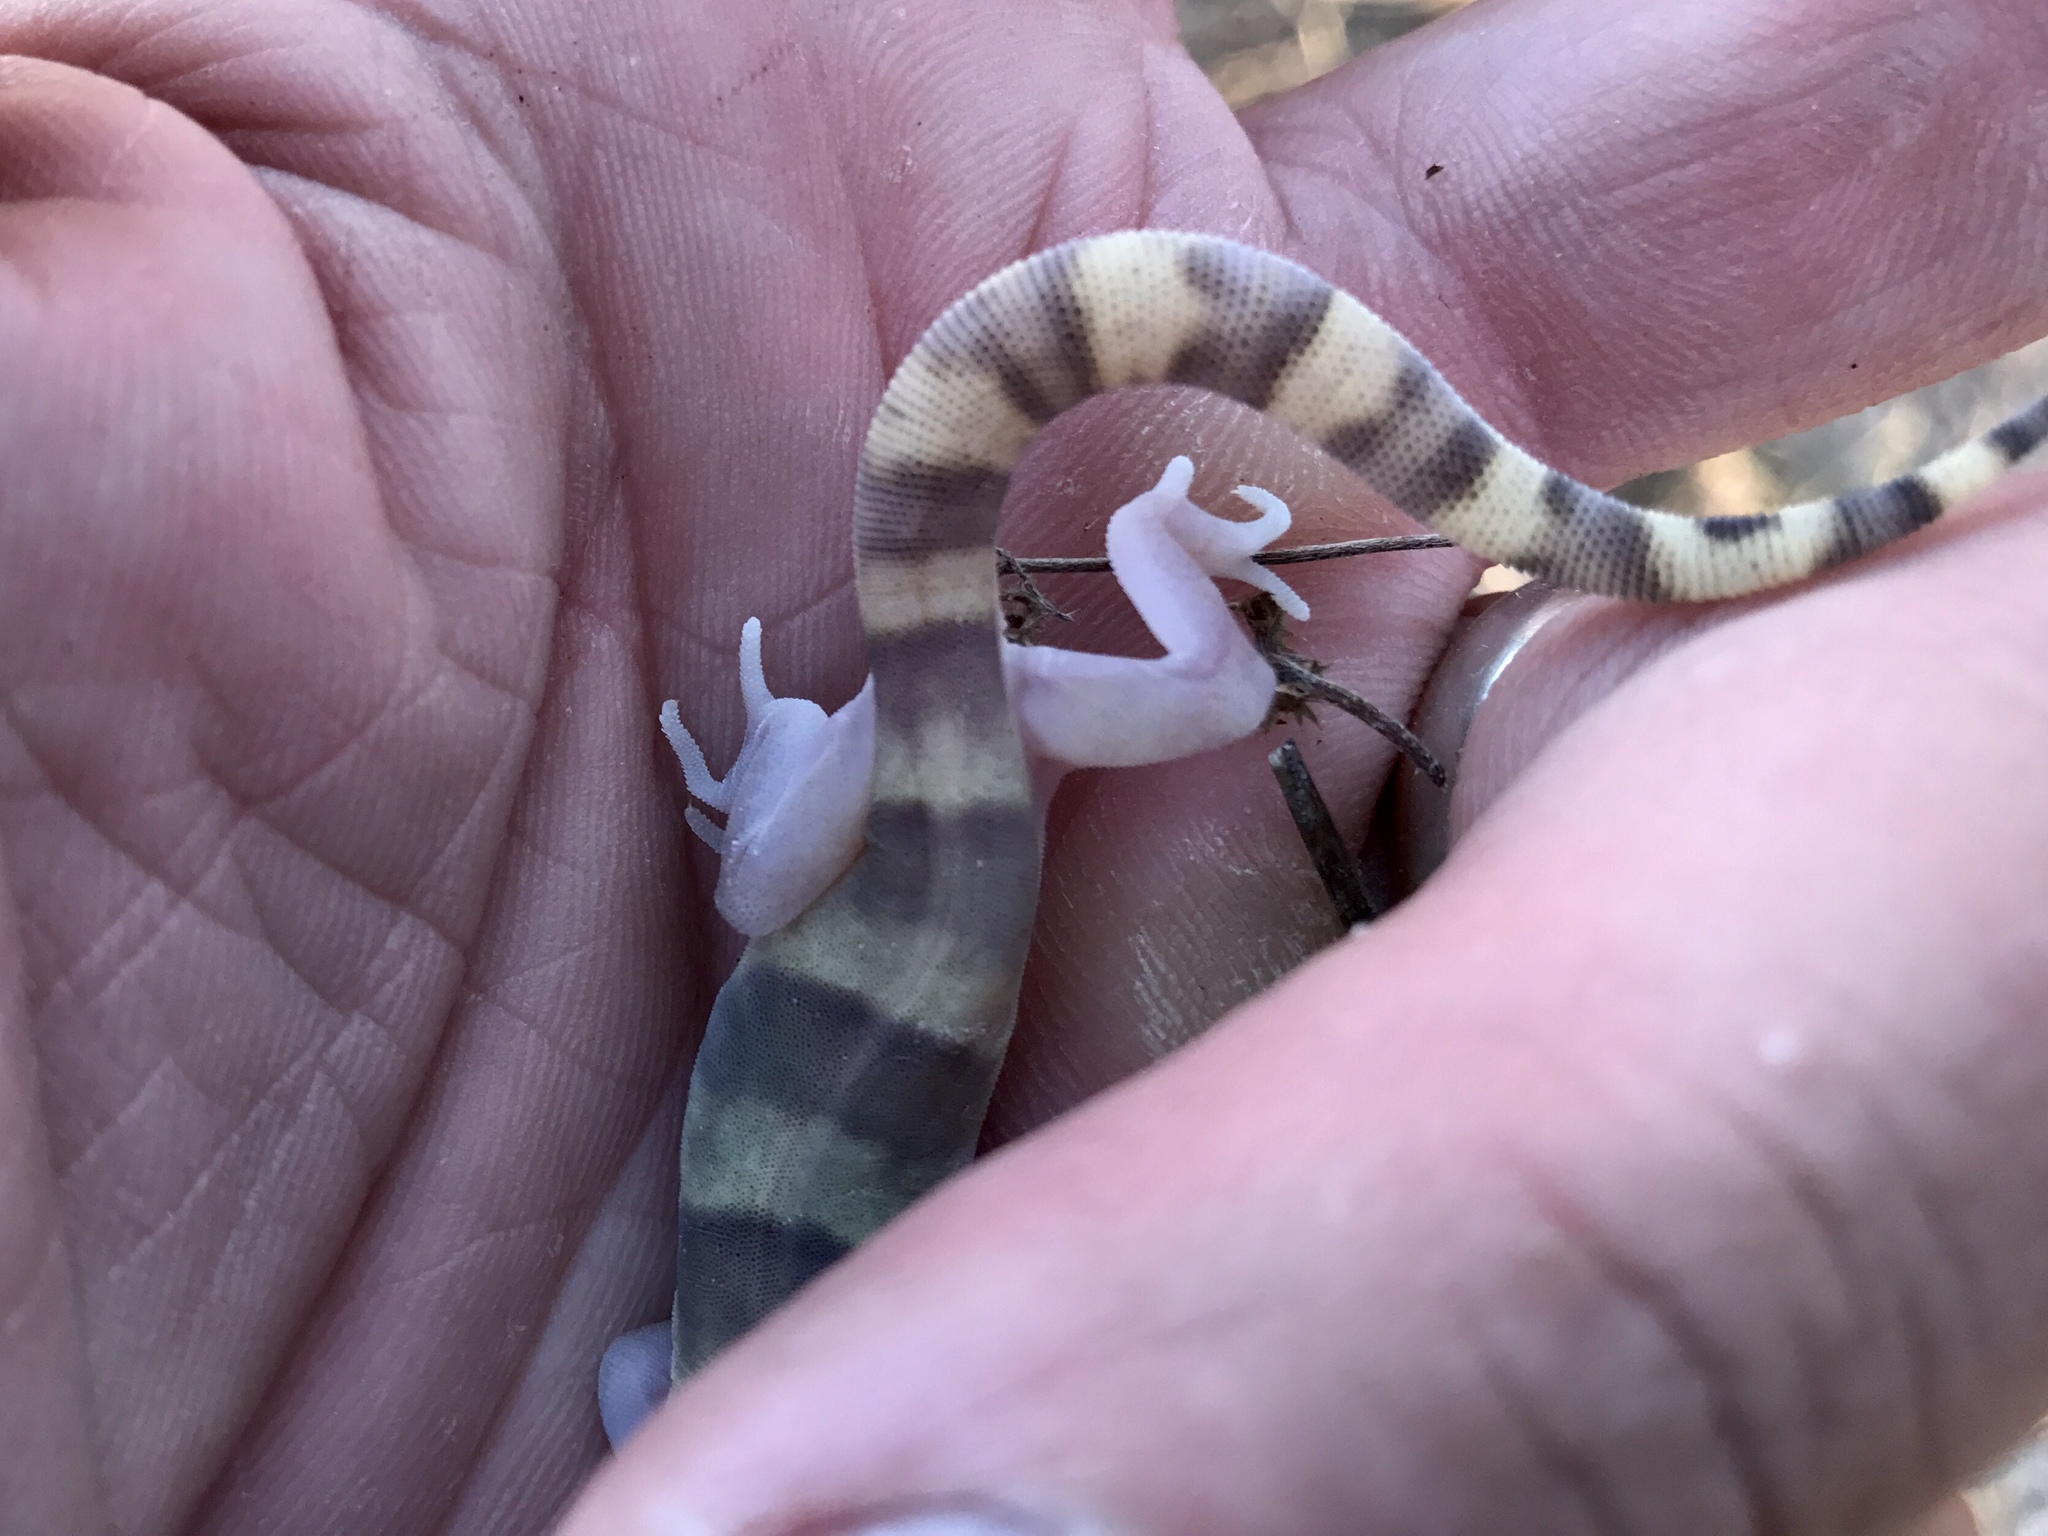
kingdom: Animalia
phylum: Chordata
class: Squamata
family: Eublepharidae
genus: Coleonyx
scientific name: Coleonyx variegatus
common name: Western banded gecko
